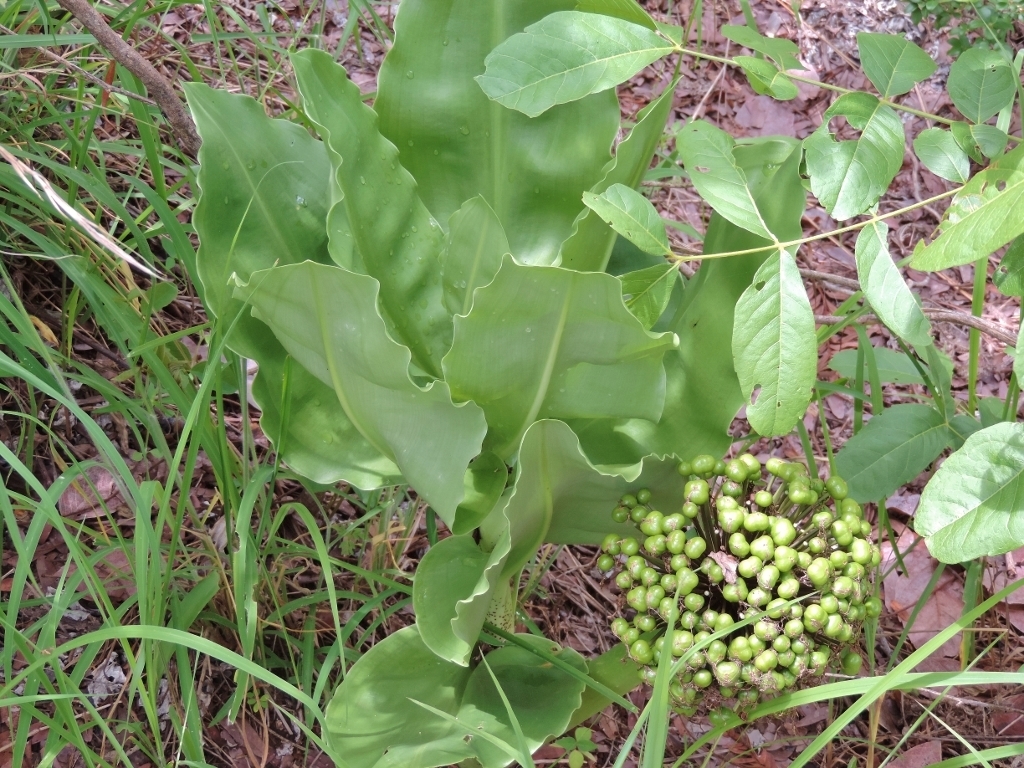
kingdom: Plantae
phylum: Tracheophyta
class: Liliopsida
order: Asparagales
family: Amaryllidaceae
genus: Scadoxus
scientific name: Scadoxus multiflorus
